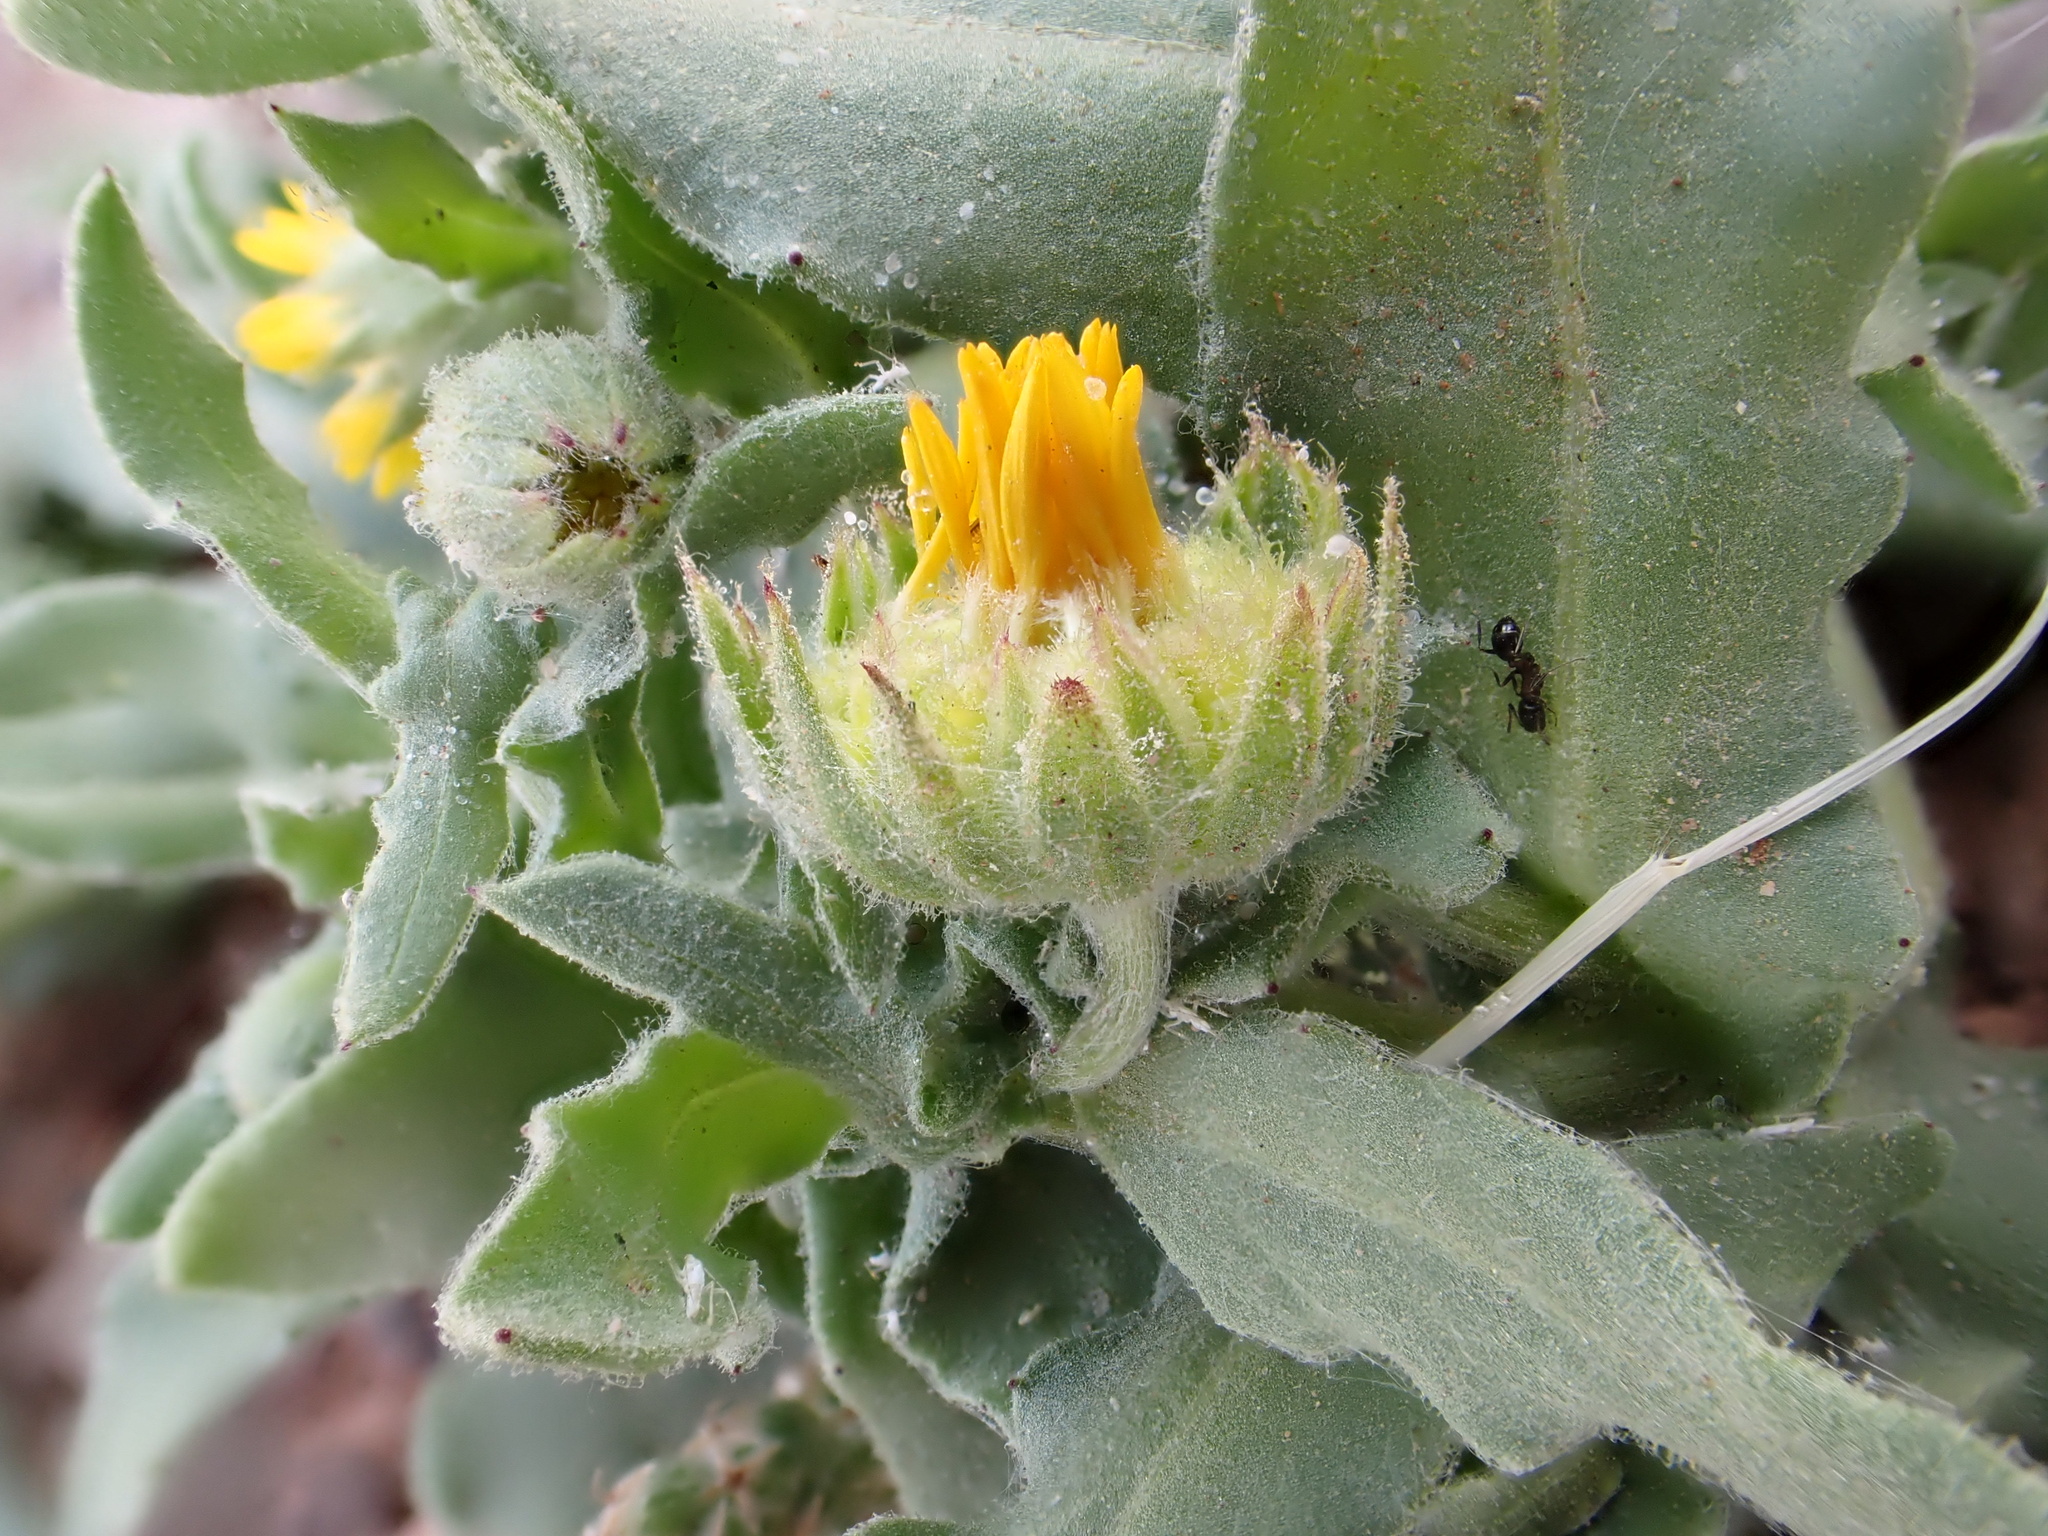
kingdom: Plantae
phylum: Tracheophyta
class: Magnoliopsida
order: Asterales
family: Asteraceae
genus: Calendula
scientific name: Calendula tripterocarpa
